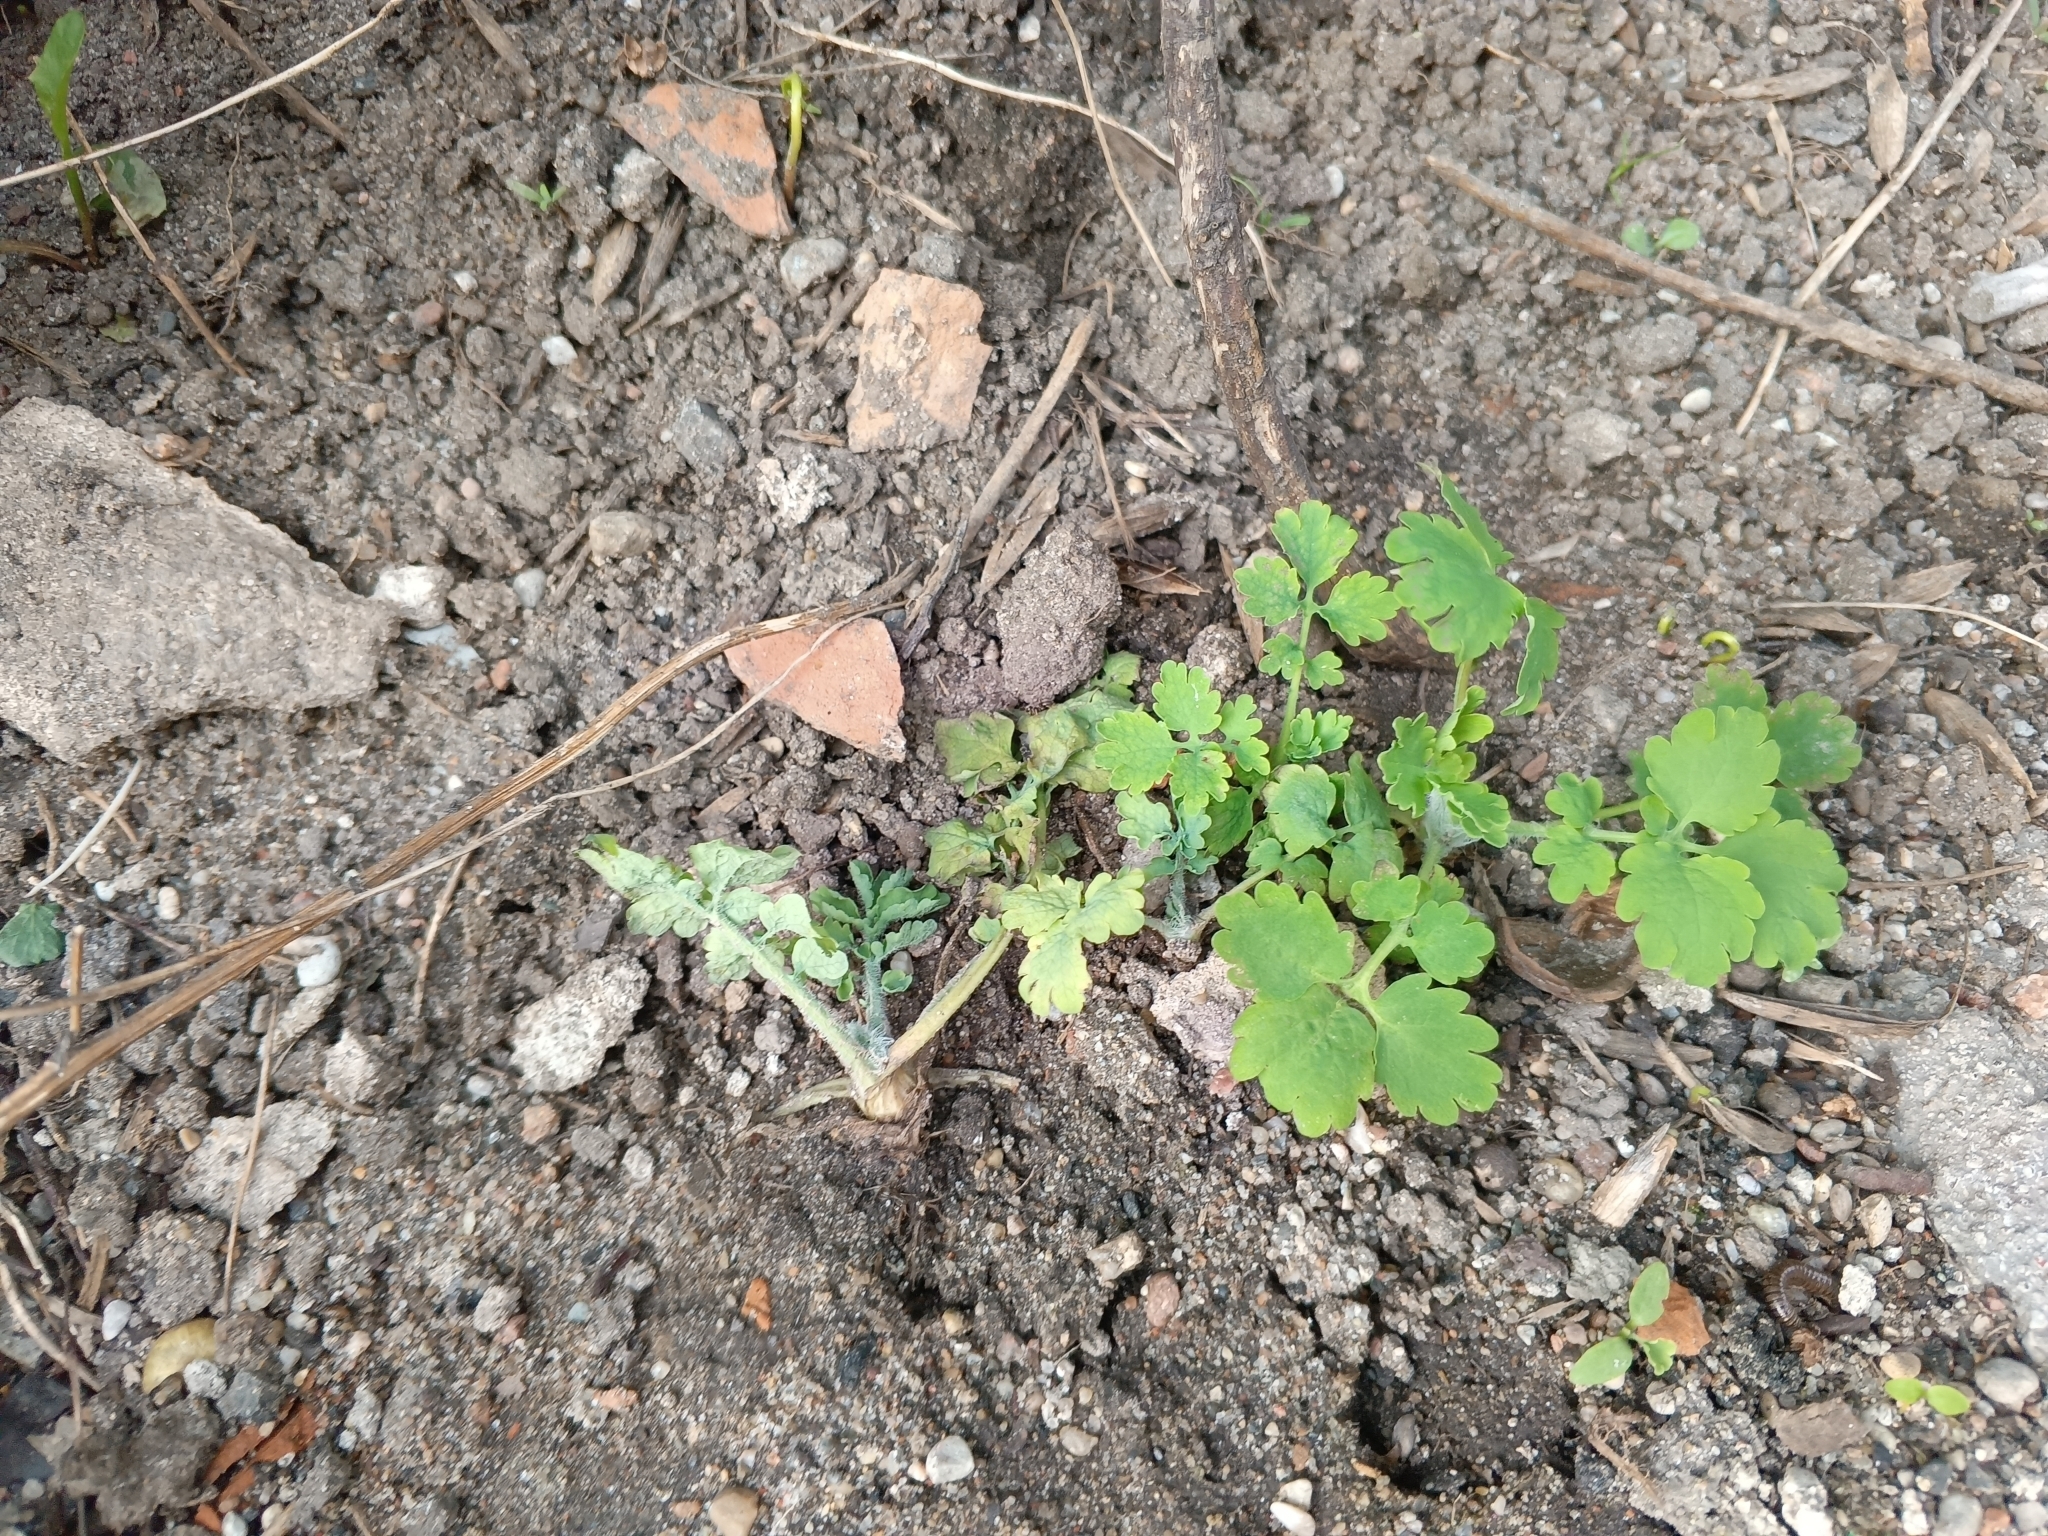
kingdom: Plantae
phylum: Tracheophyta
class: Magnoliopsida
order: Ranunculales
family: Papaveraceae
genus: Chelidonium
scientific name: Chelidonium majus
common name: Greater celandine
